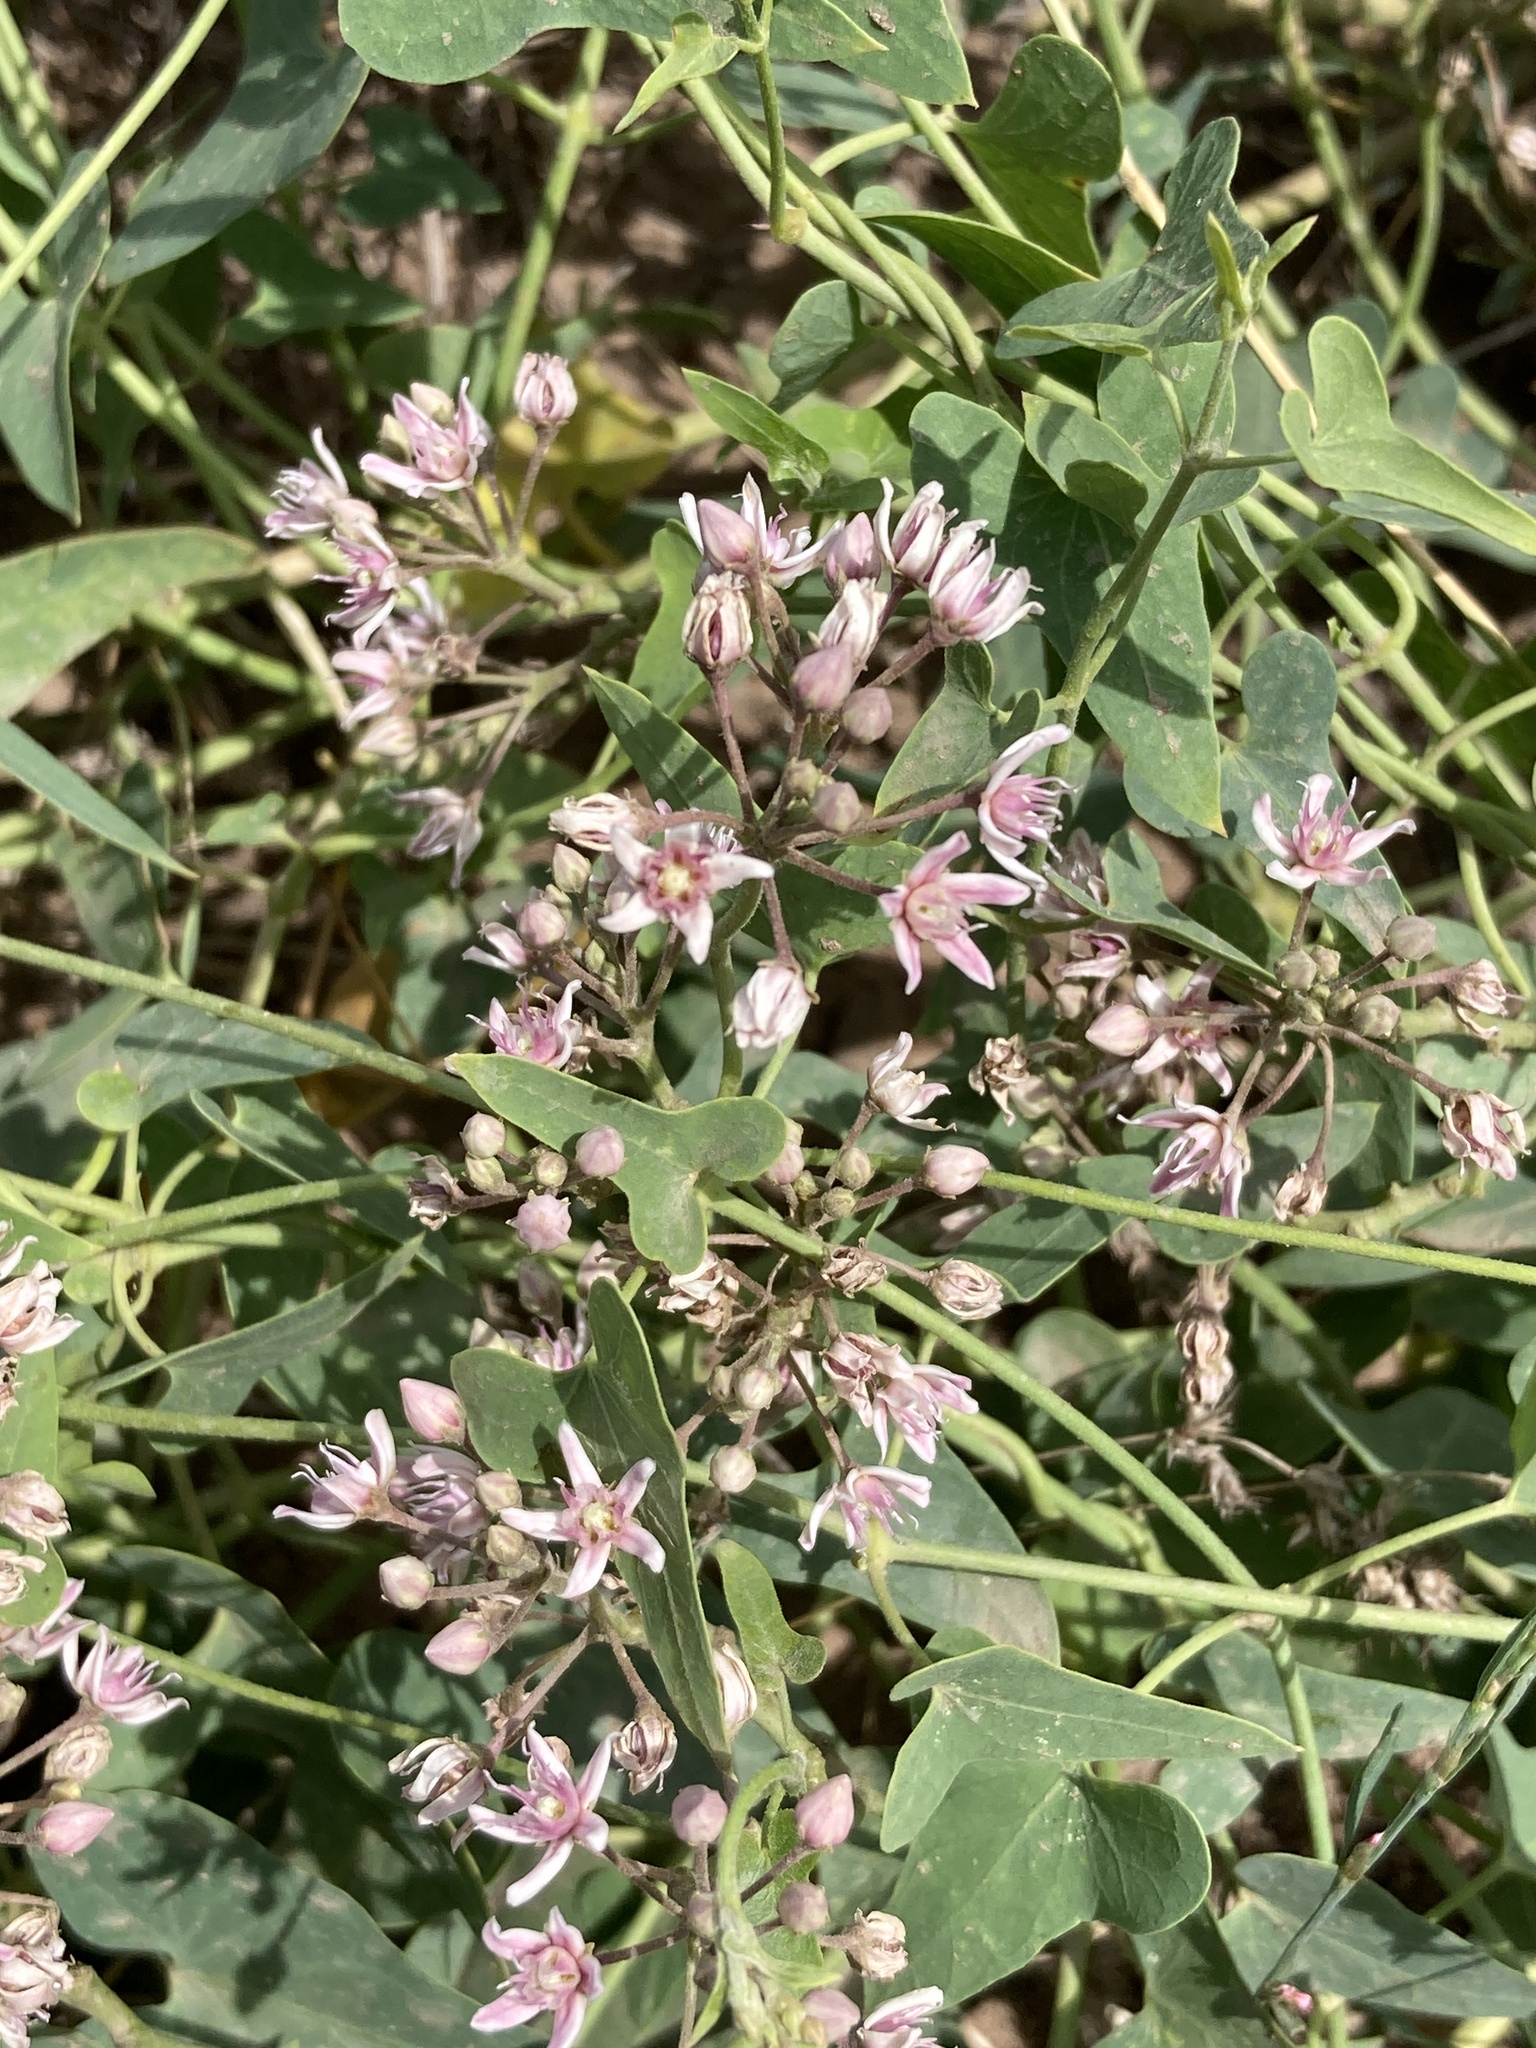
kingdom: Plantae
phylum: Tracheophyta
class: Magnoliopsida
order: Gentianales
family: Apocynaceae
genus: Cynanchum
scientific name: Cynanchum acutum
